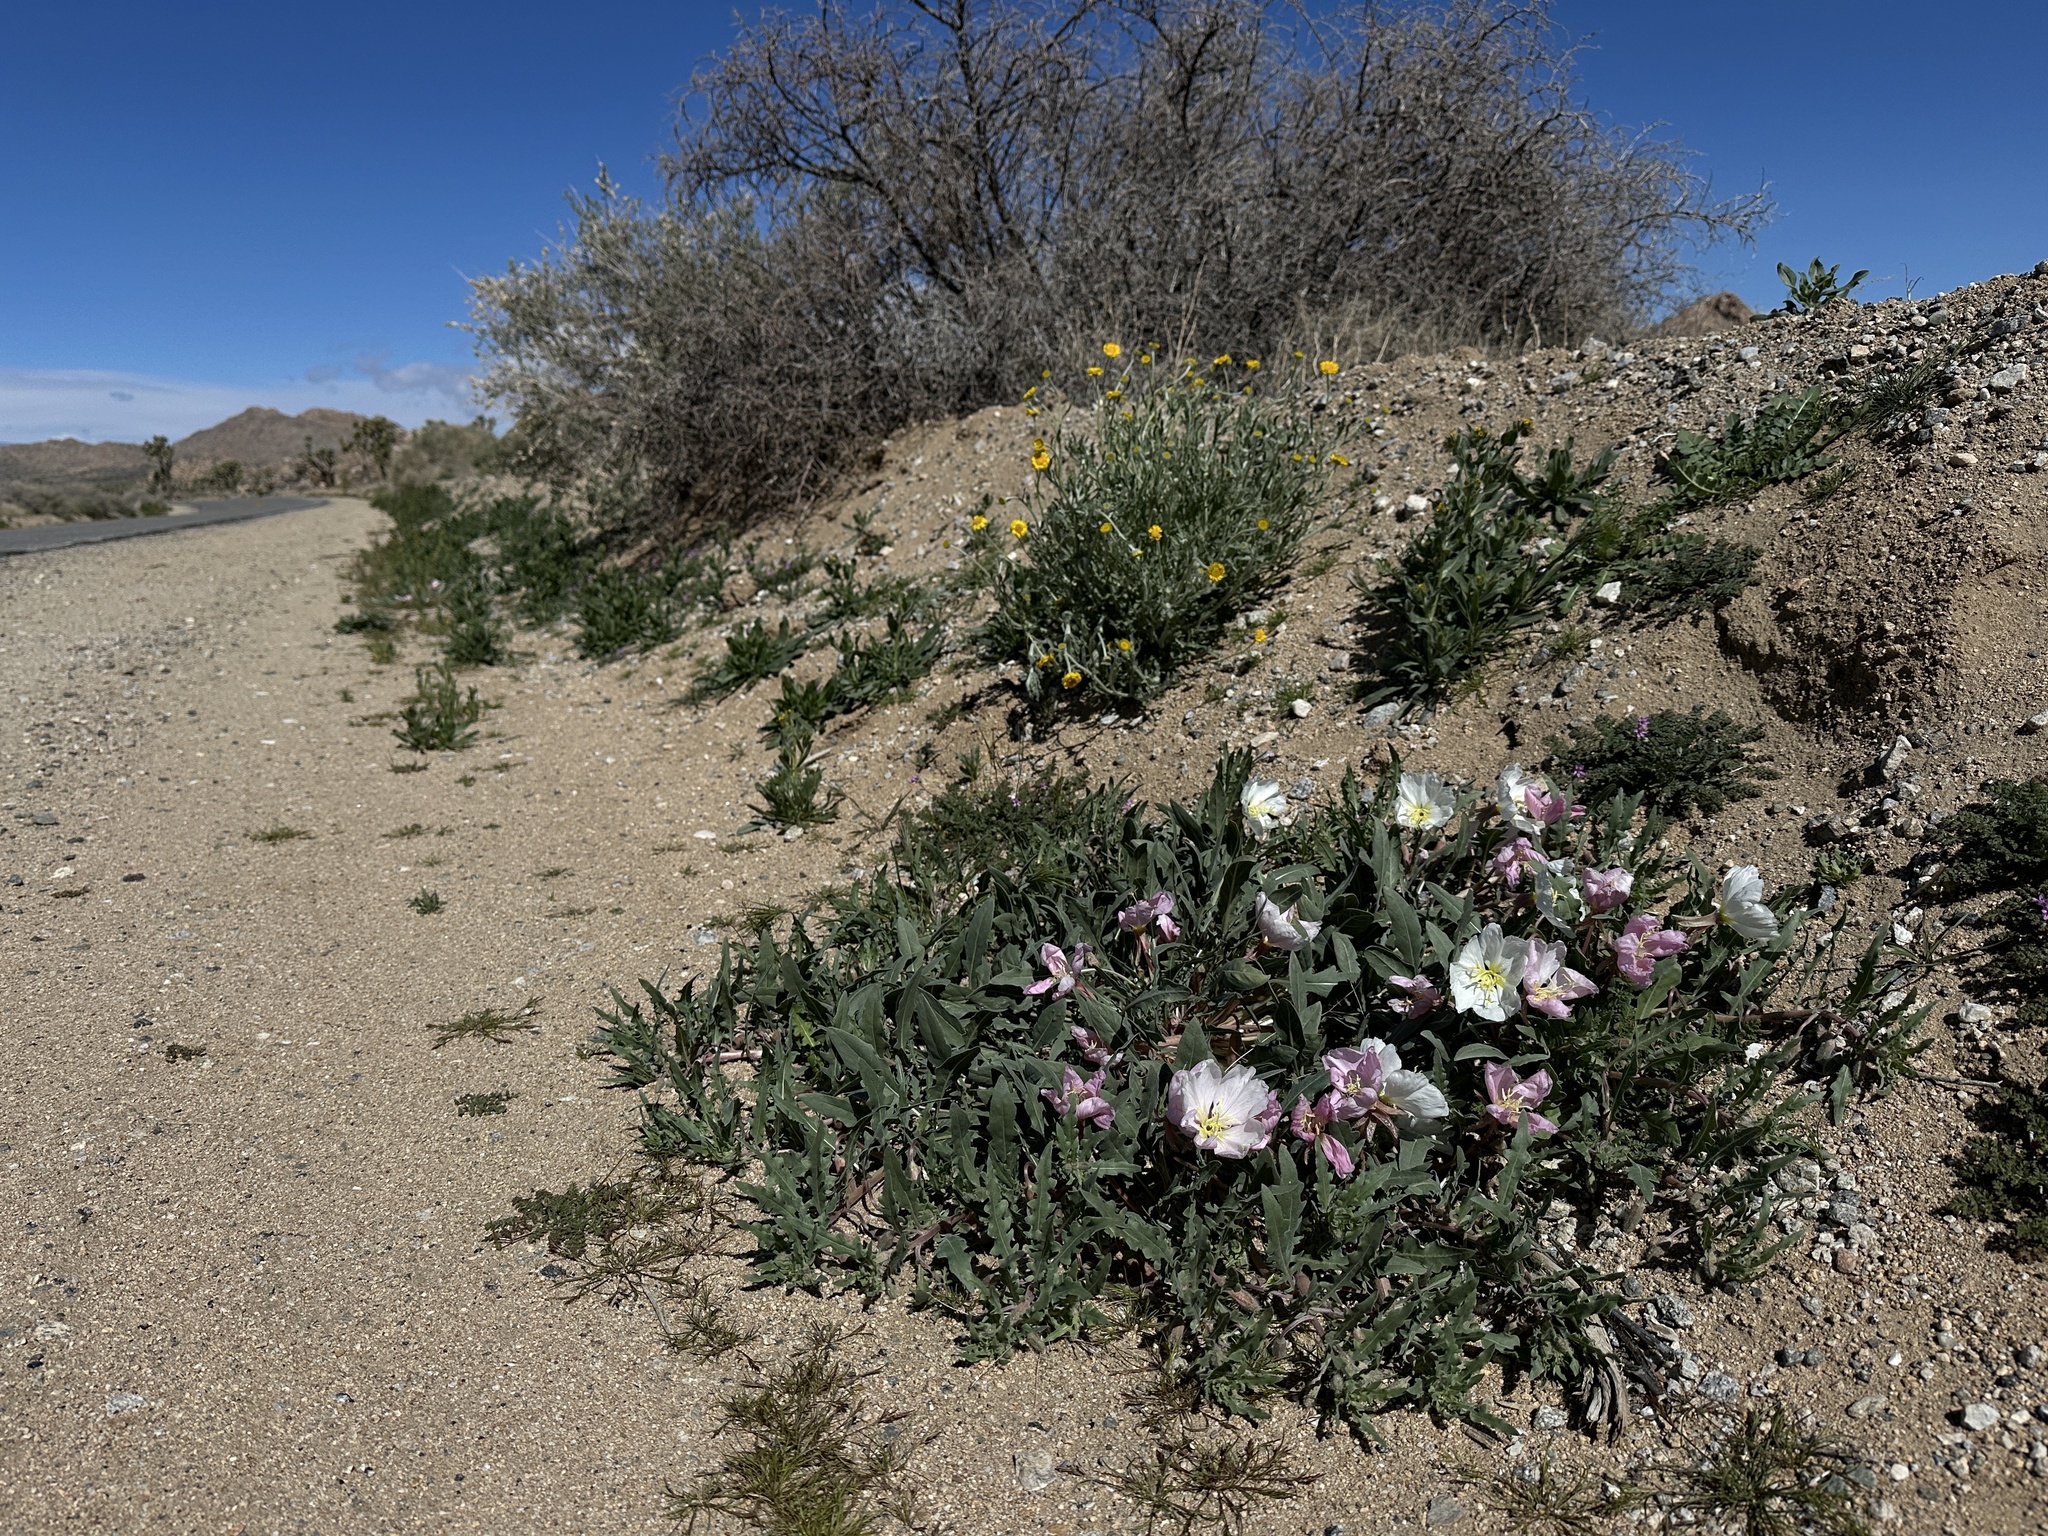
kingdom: Plantae
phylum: Tracheophyta
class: Magnoliopsida
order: Myrtales
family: Onagraceae
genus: Oenothera
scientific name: Oenothera californica
